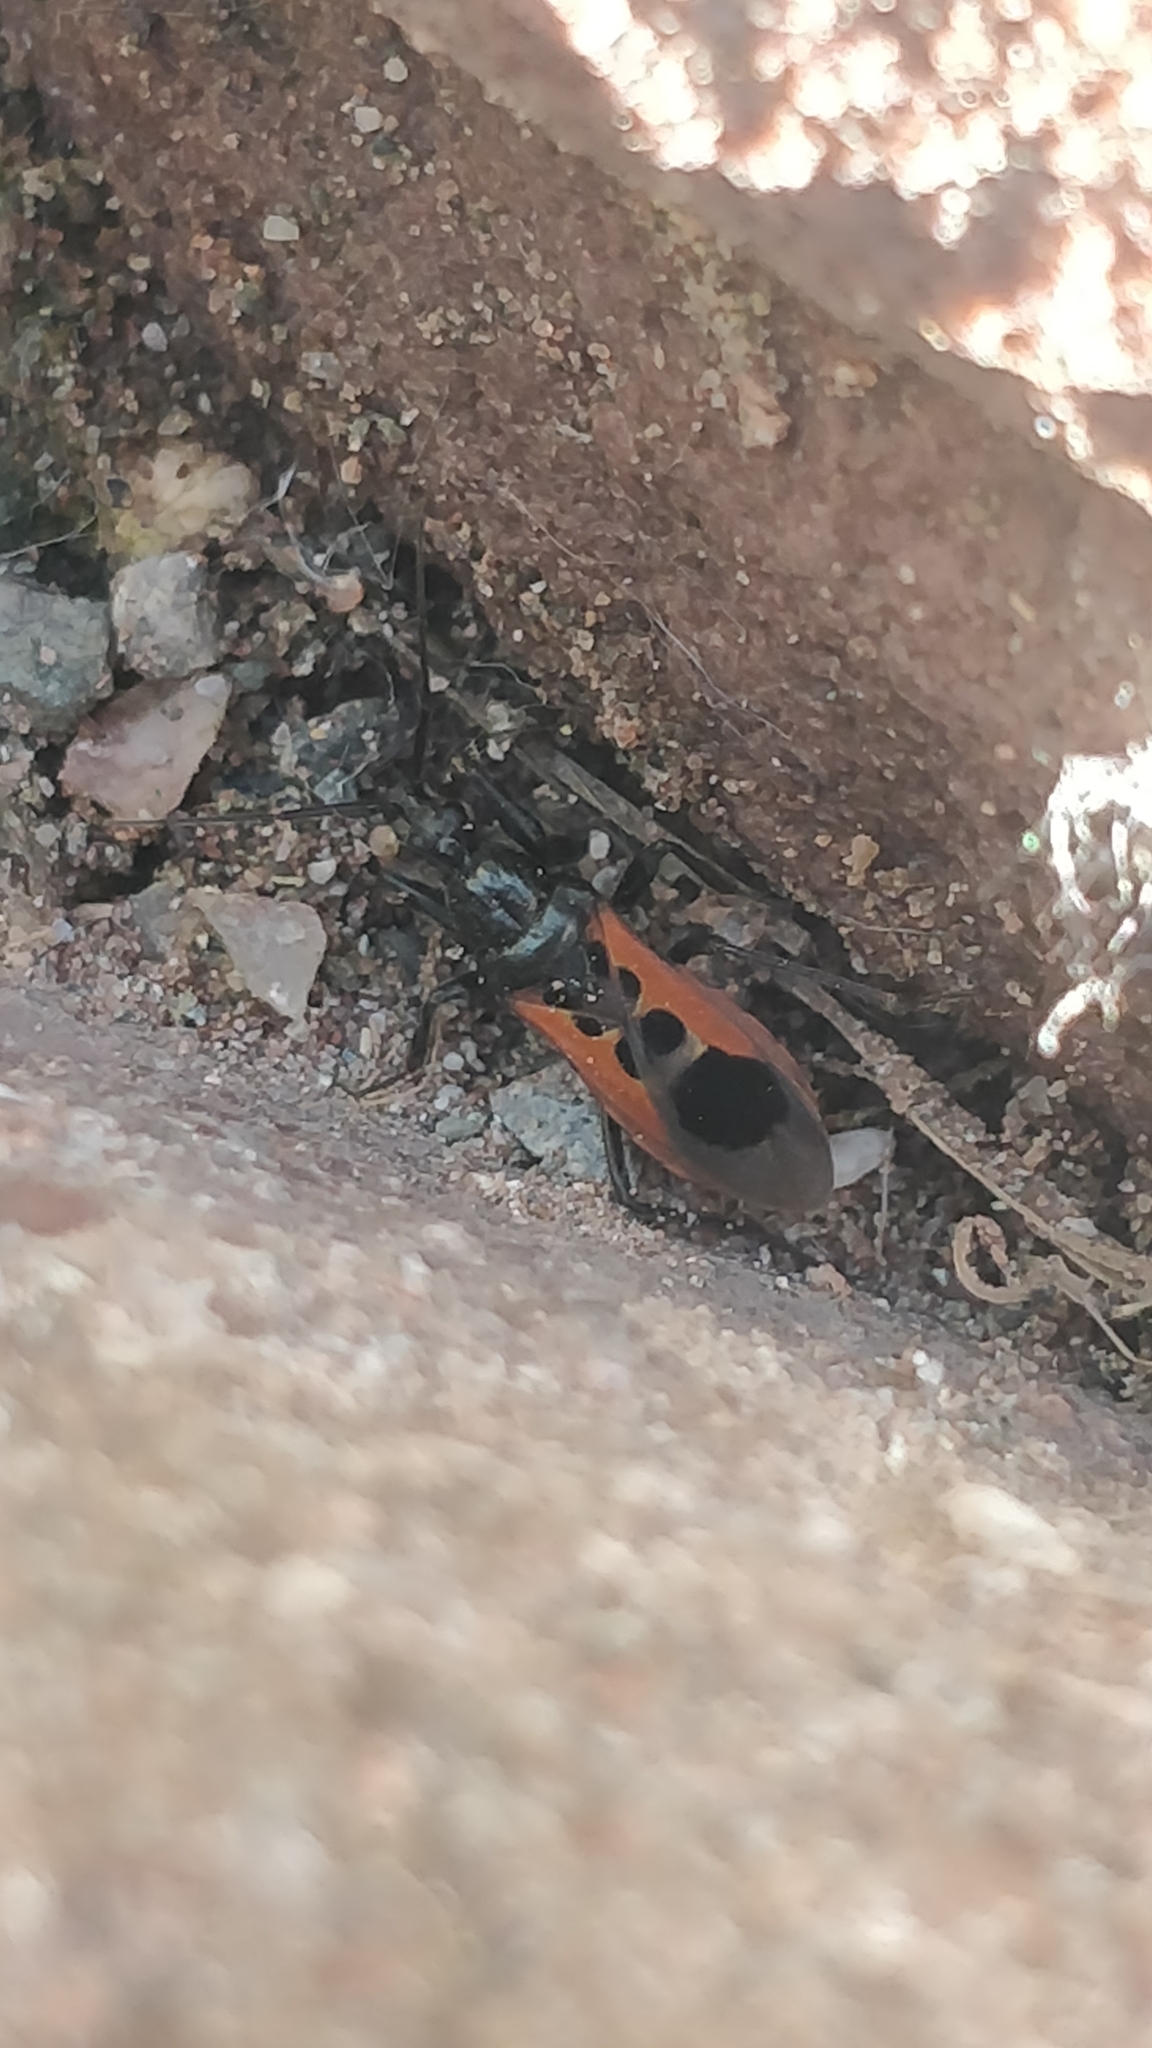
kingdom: Animalia
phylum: Arthropoda
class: Insecta
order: Hemiptera
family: Reduviidae
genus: Peirates
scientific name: Peirates stridulus
